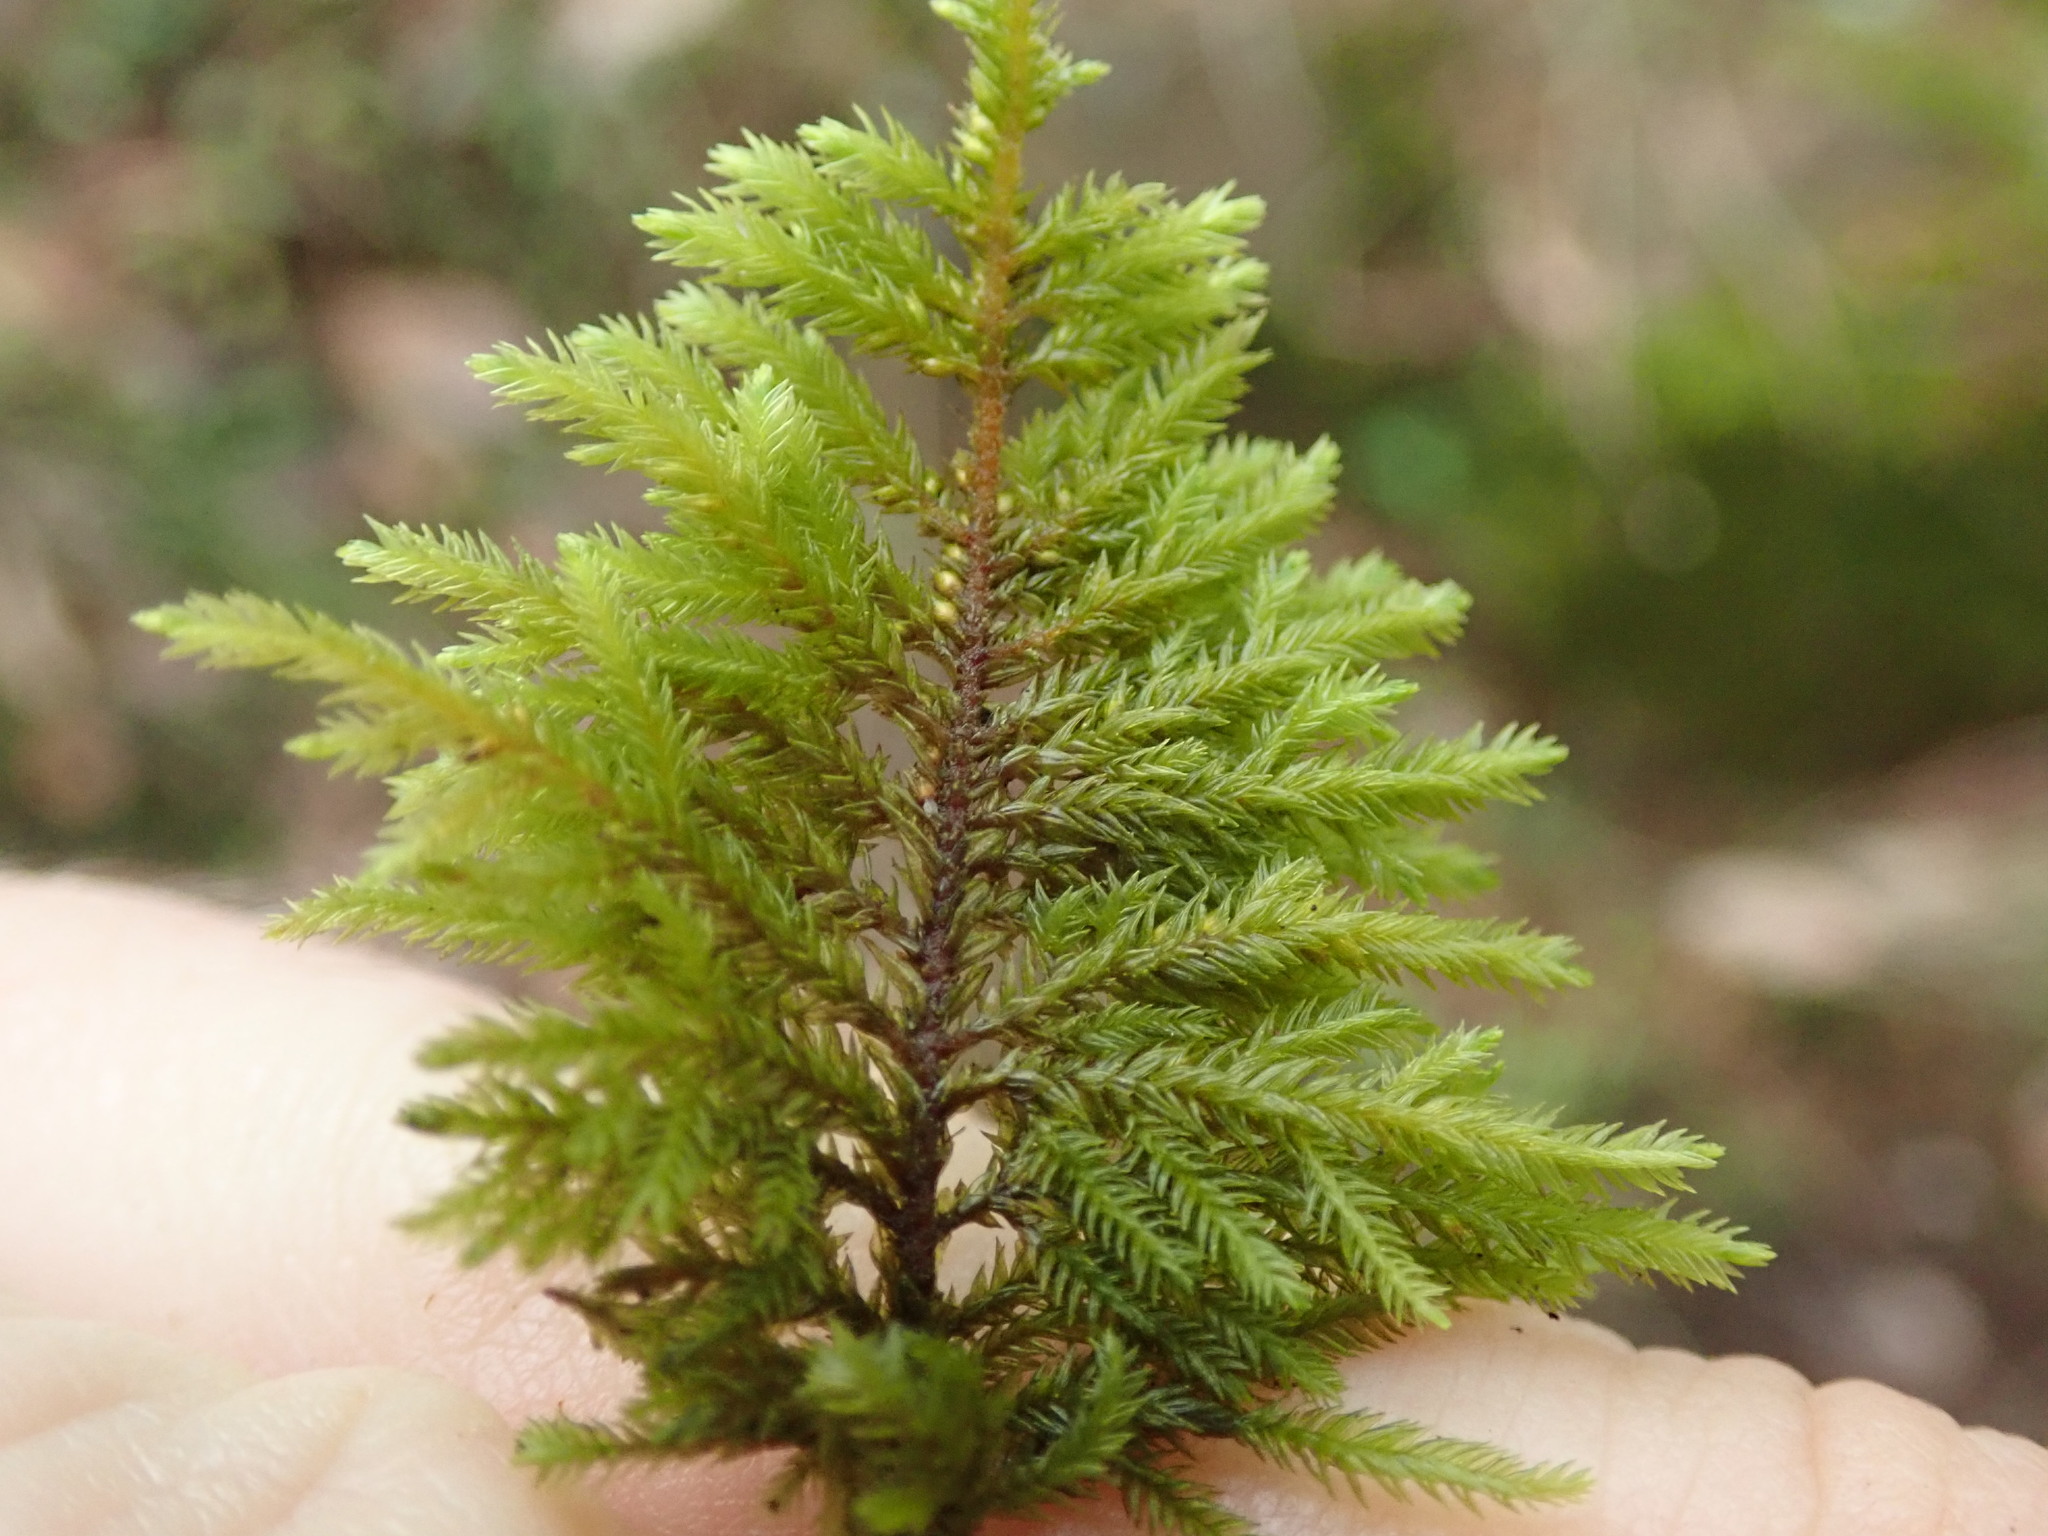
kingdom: Plantae
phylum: Bryophyta
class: Bryopsida
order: Hypnales
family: Cryphaeaceae
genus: Dendroalsia
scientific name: Dendroalsia abietina
